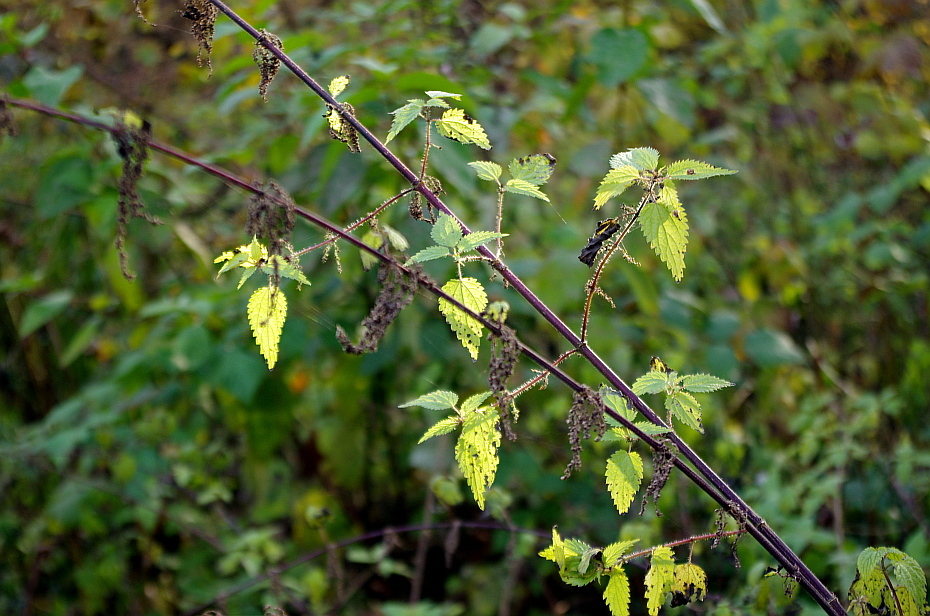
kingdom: Plantae
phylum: Tracheophyta
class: Magnoliopsida
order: Rosales
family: Urticaceae
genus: Urtica
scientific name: Urtica dioica
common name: Common nettle
